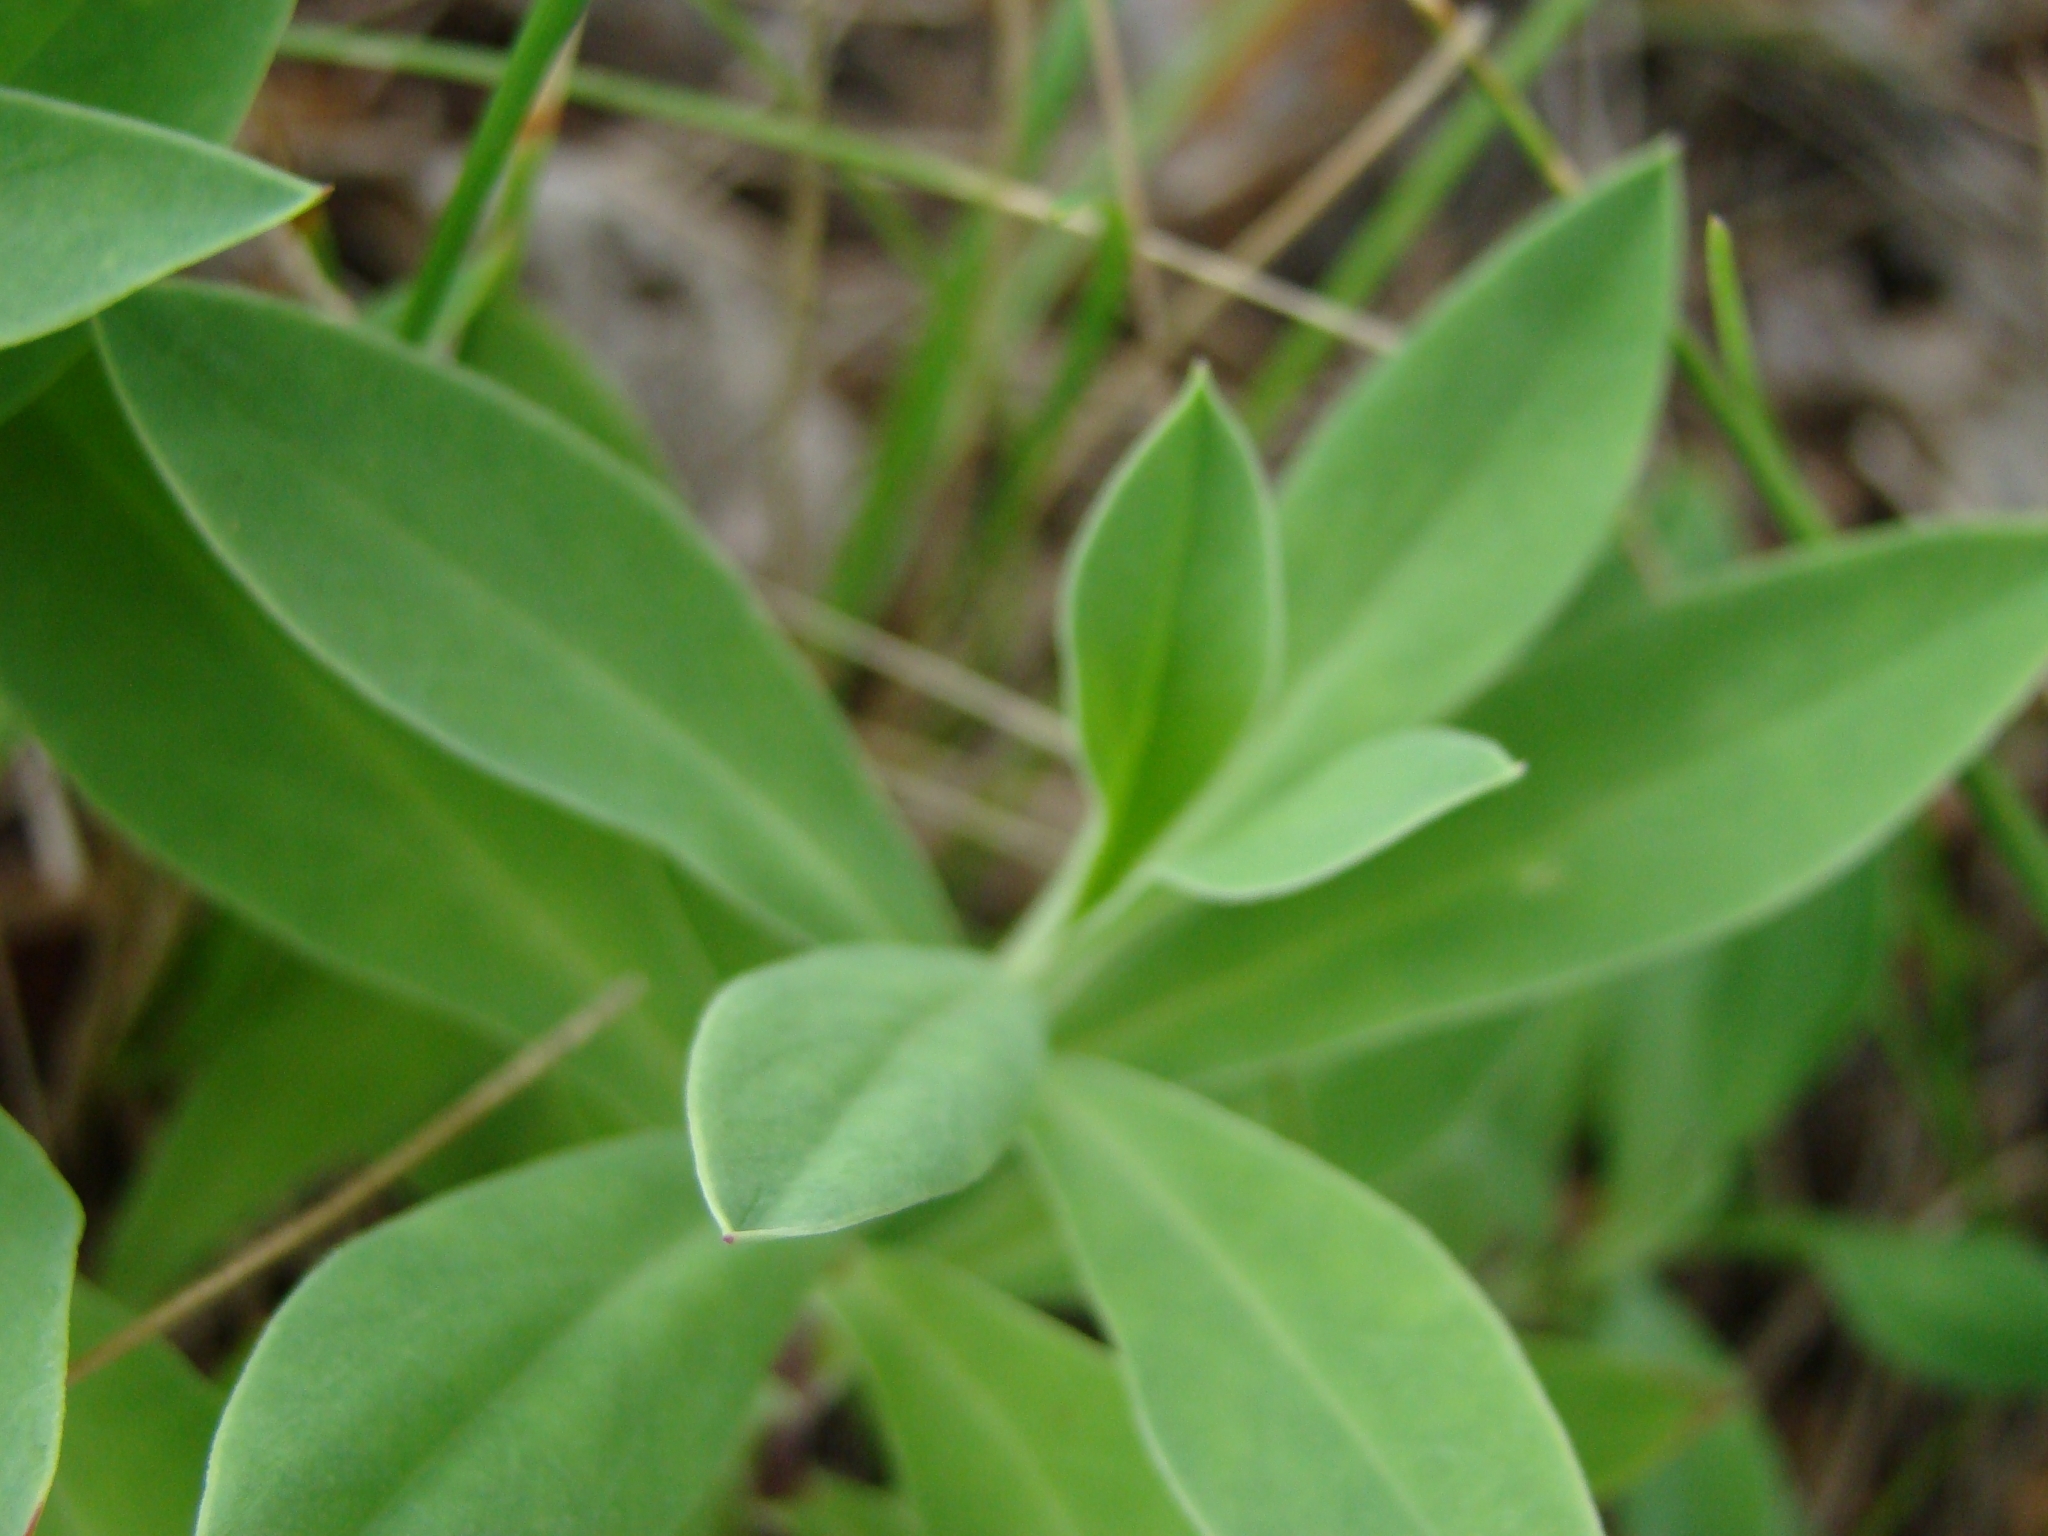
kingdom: Plantae
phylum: Tracheophyta
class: Magnoliopsida
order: Caryophyllales
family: Caryophyllaceae
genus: Silene
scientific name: Silene vulgaris
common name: Bladder campion
